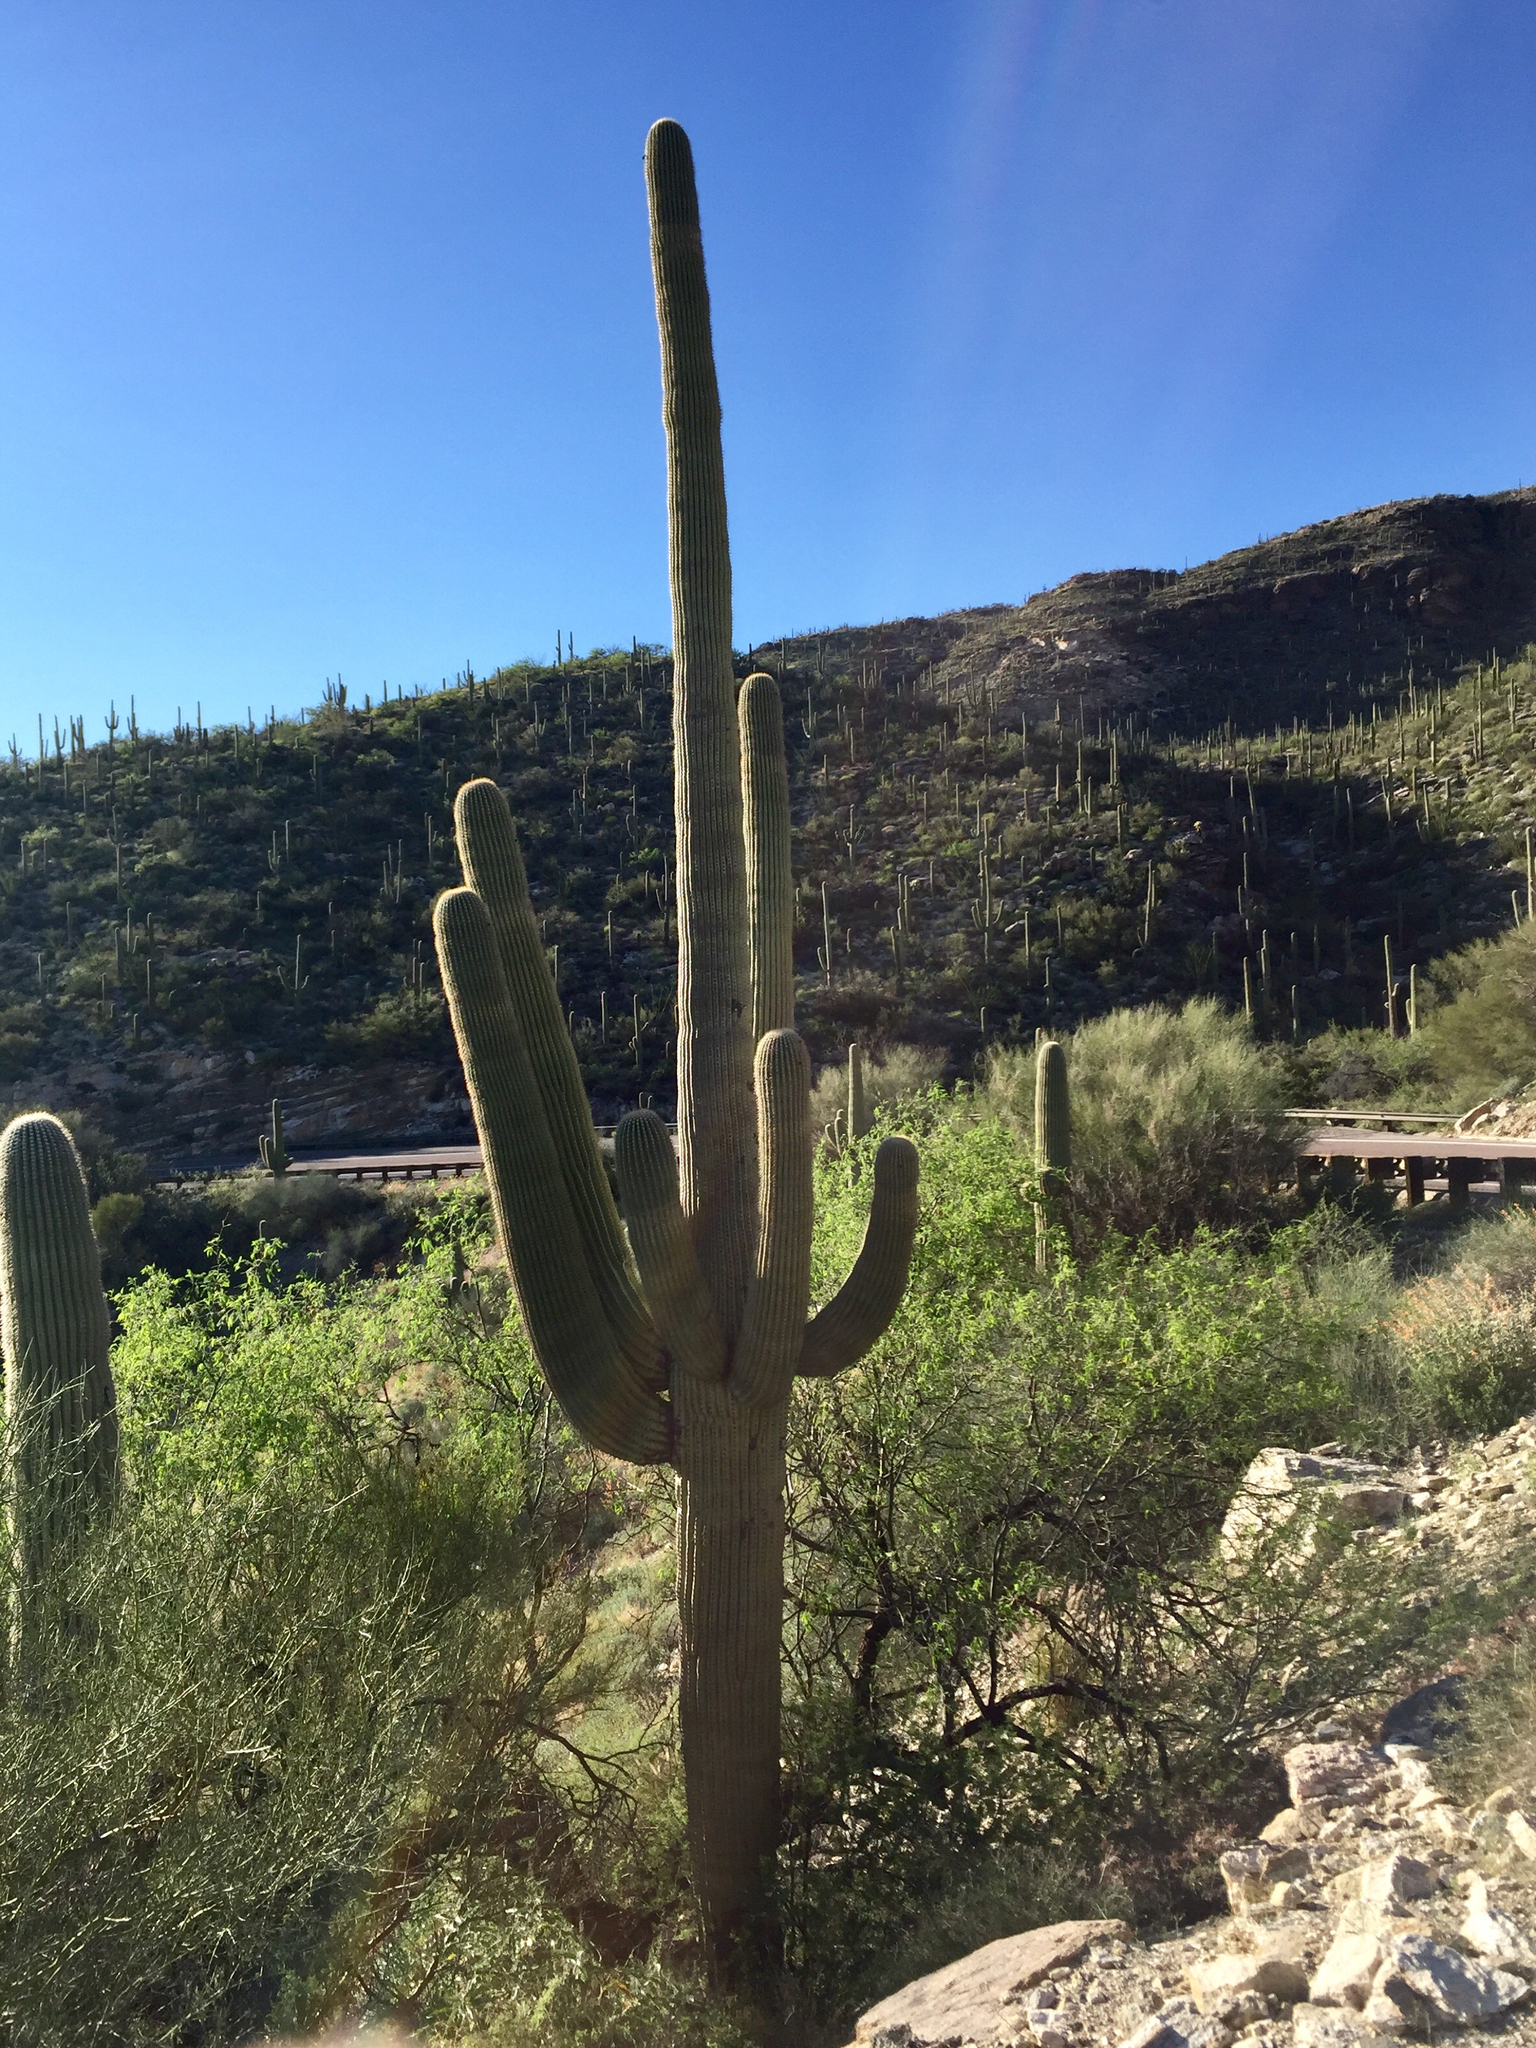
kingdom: Plantae
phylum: Tracheophyta
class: Magnoliopsida
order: Caryophyllales
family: Cactaceae
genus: Carnegiea
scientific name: Carnegiea gigantea
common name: Saguaro
